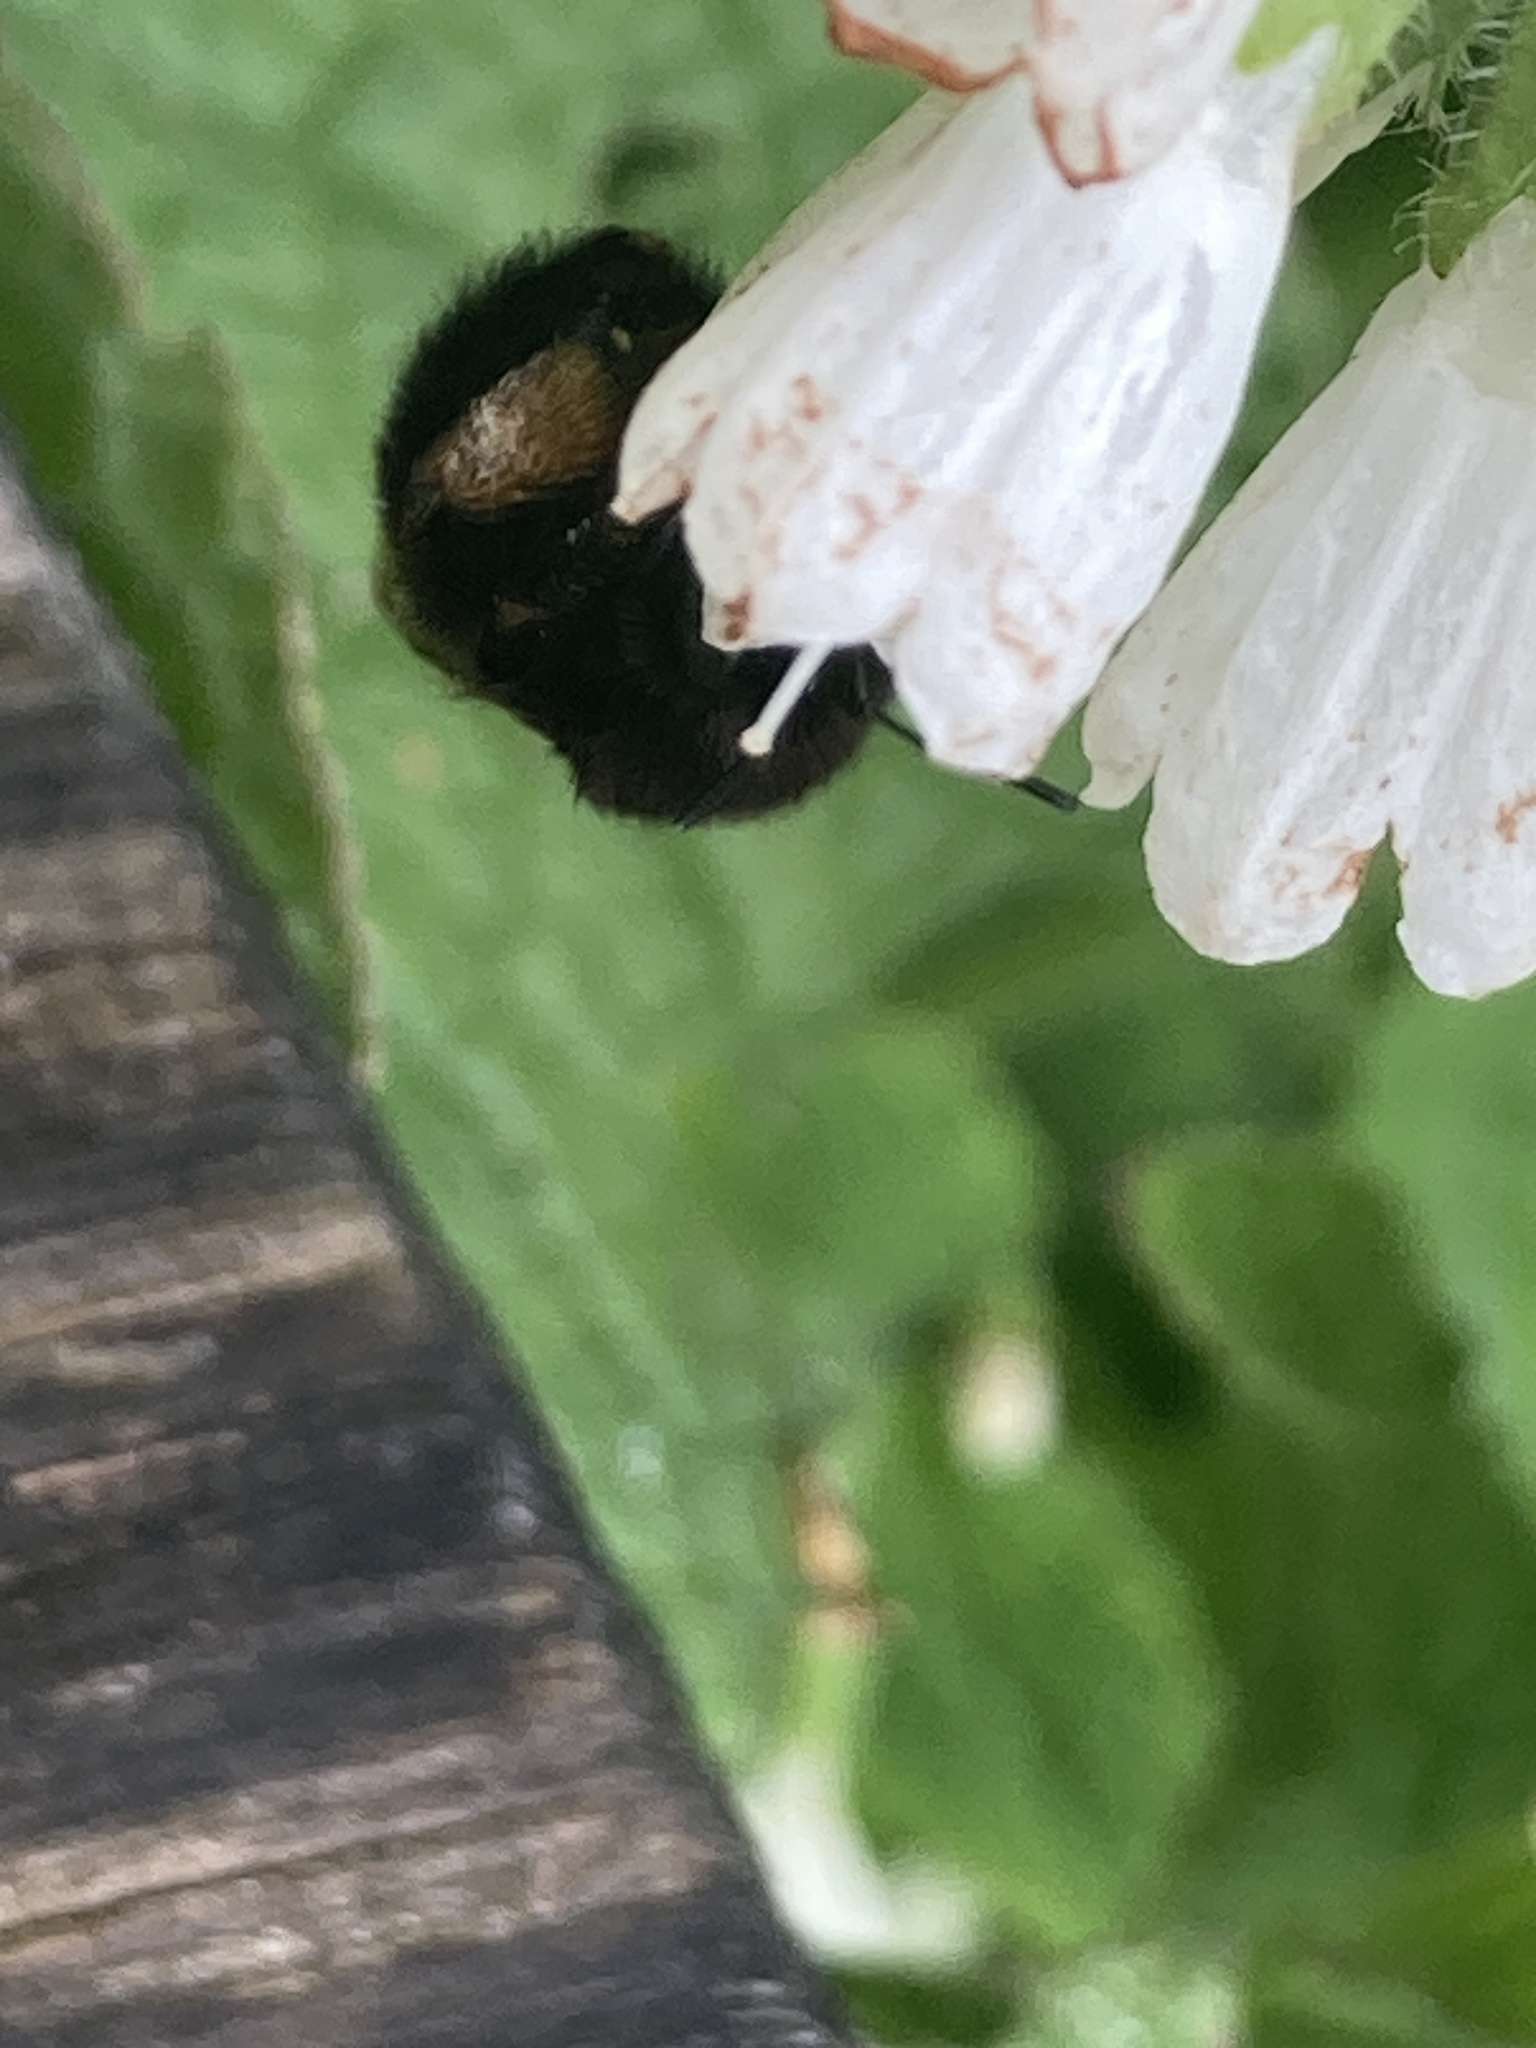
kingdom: Animalia
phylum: Arthropoda
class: Insecta
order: Hymenoptera
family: Apidae
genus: Anthophora
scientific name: Anthophora plumipes
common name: Hairy-footed flower bee
